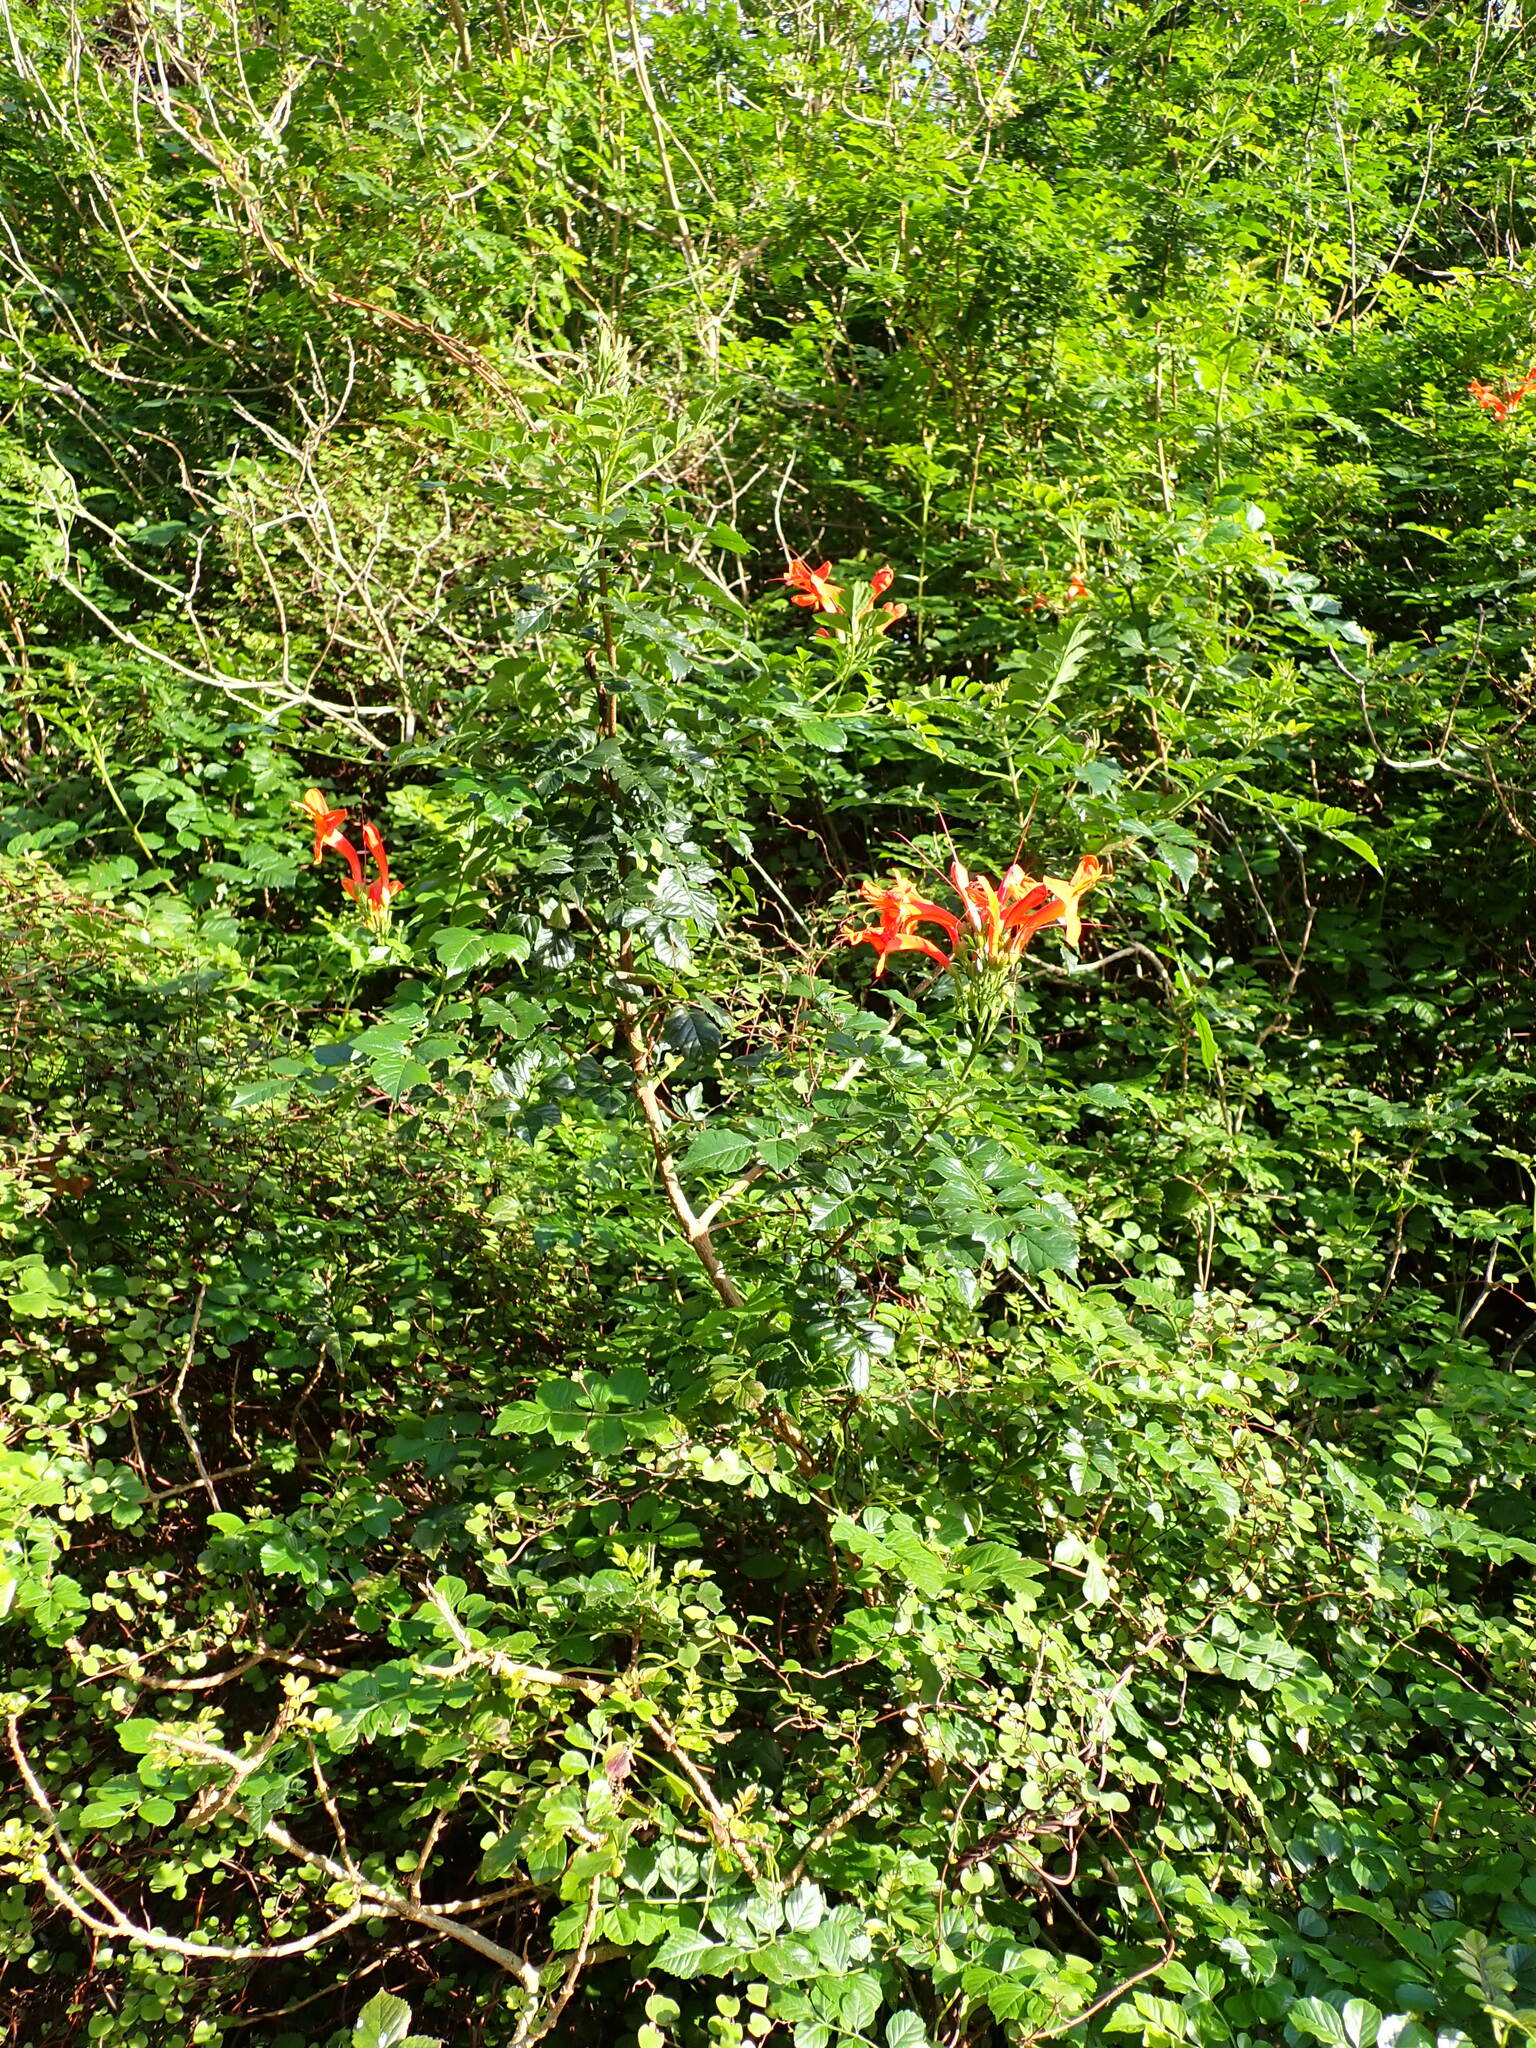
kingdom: Plantae
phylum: Tracheophyta
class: Magnoliopsida
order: Lamiales
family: Bignoniaceae
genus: Tecomaria
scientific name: Tecomaria capensis
